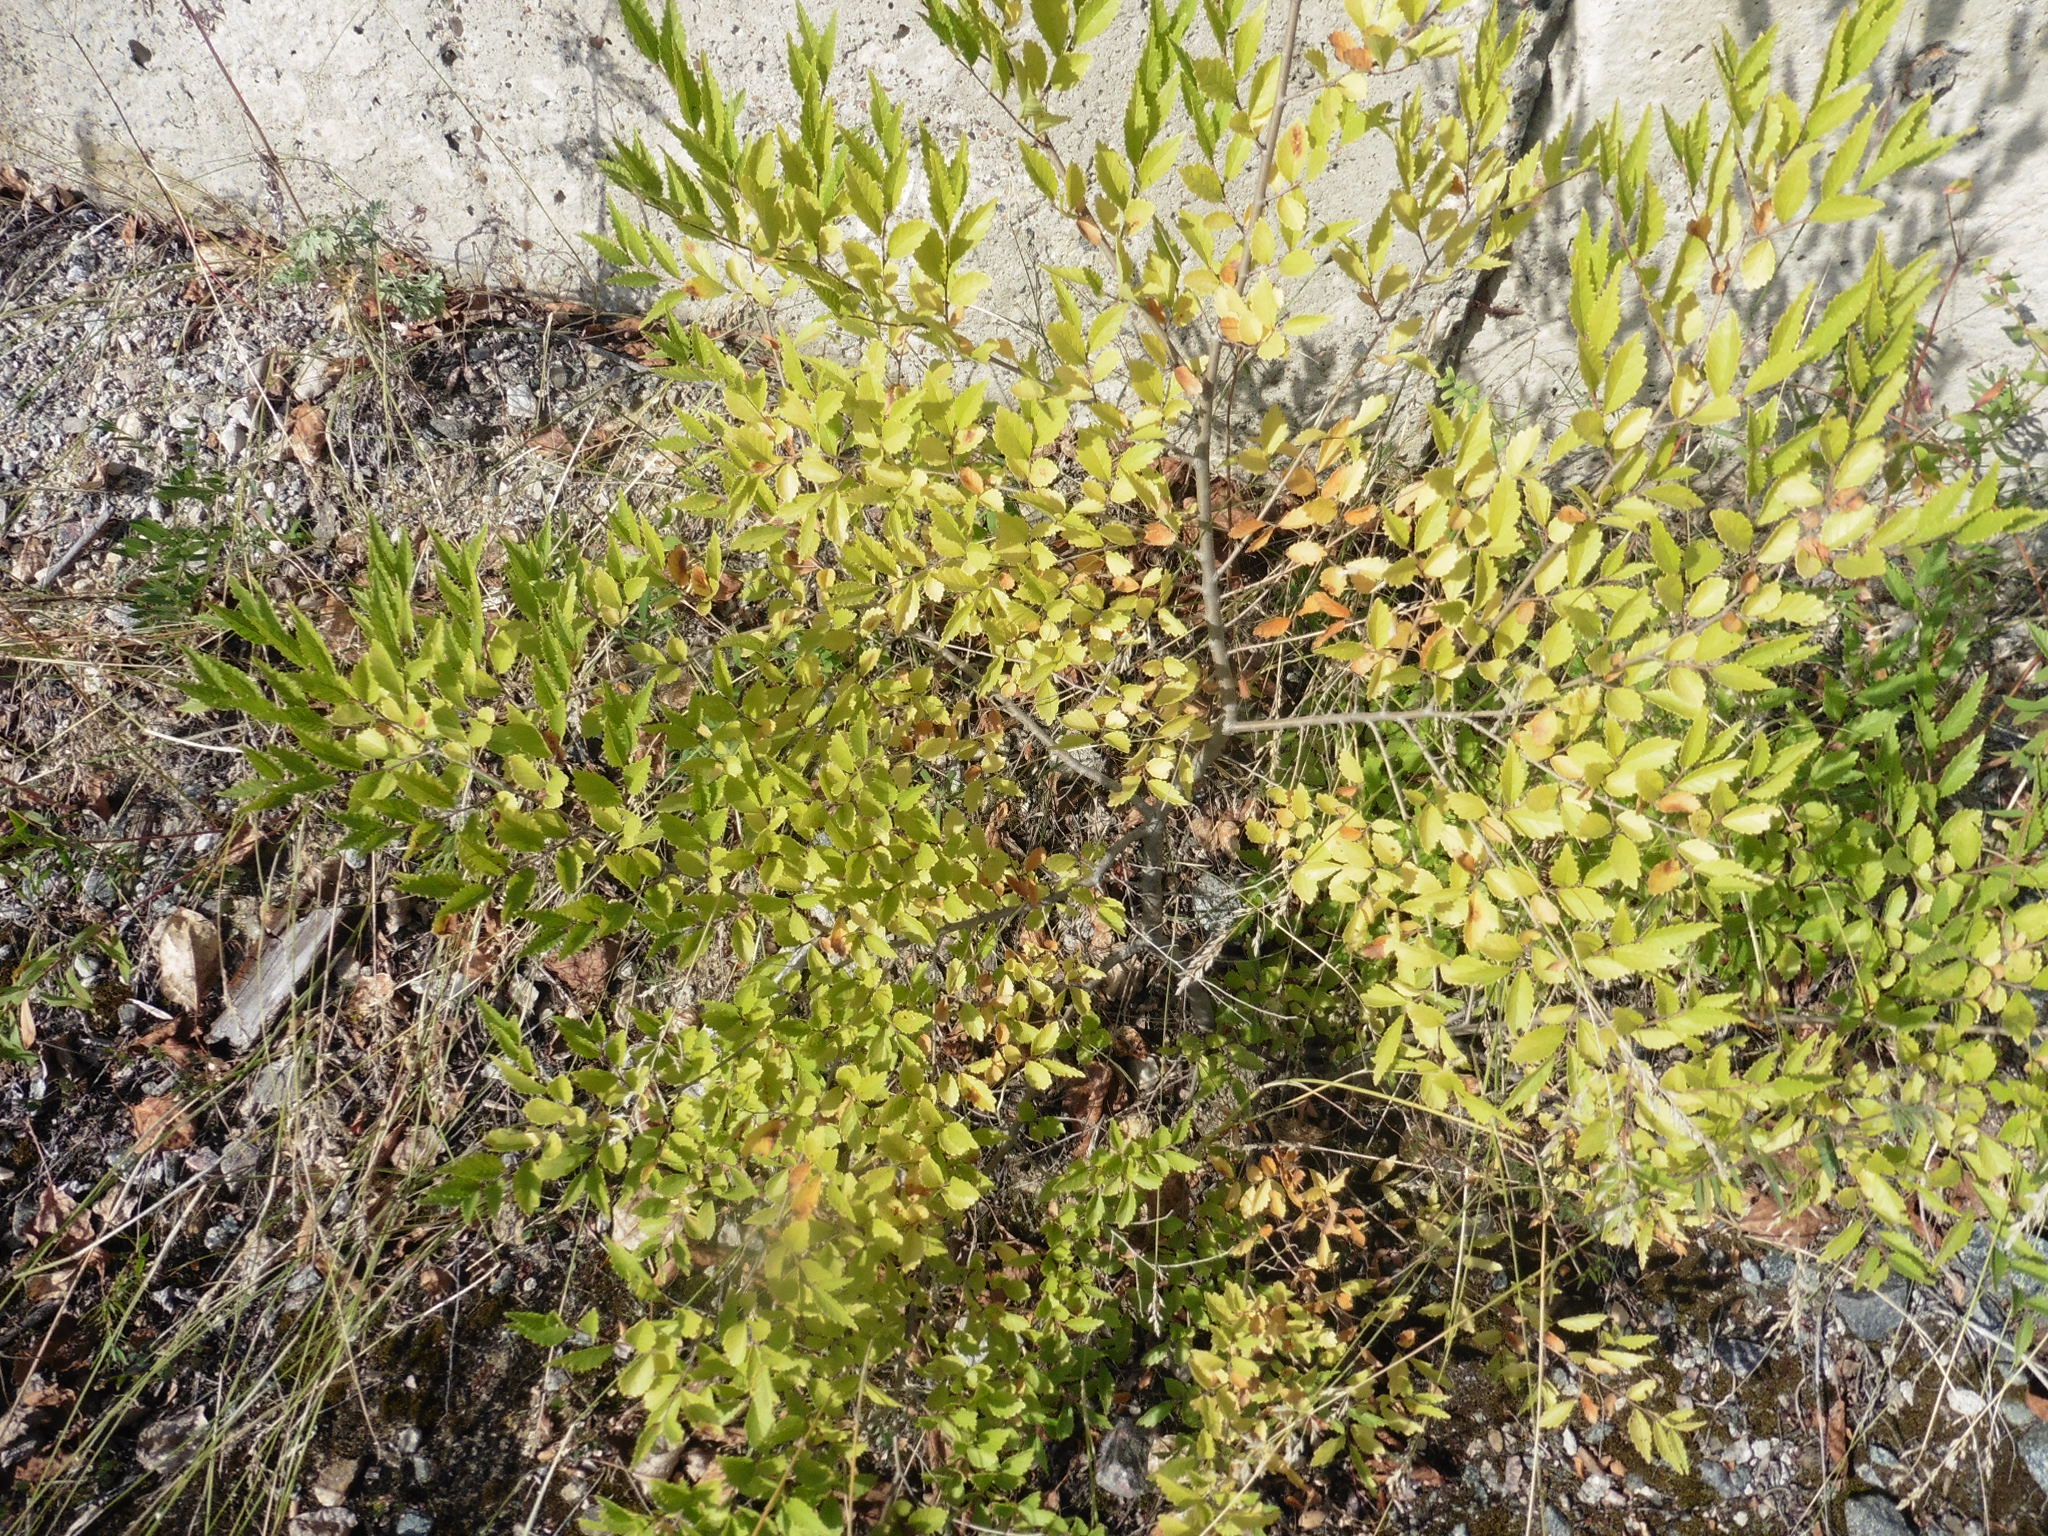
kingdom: Plantae
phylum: Tracheophyta
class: Magnoliopsida
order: Rosales
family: Ulmaceae
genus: Ulmus
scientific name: Ulmus pumila
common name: Siberian elm
